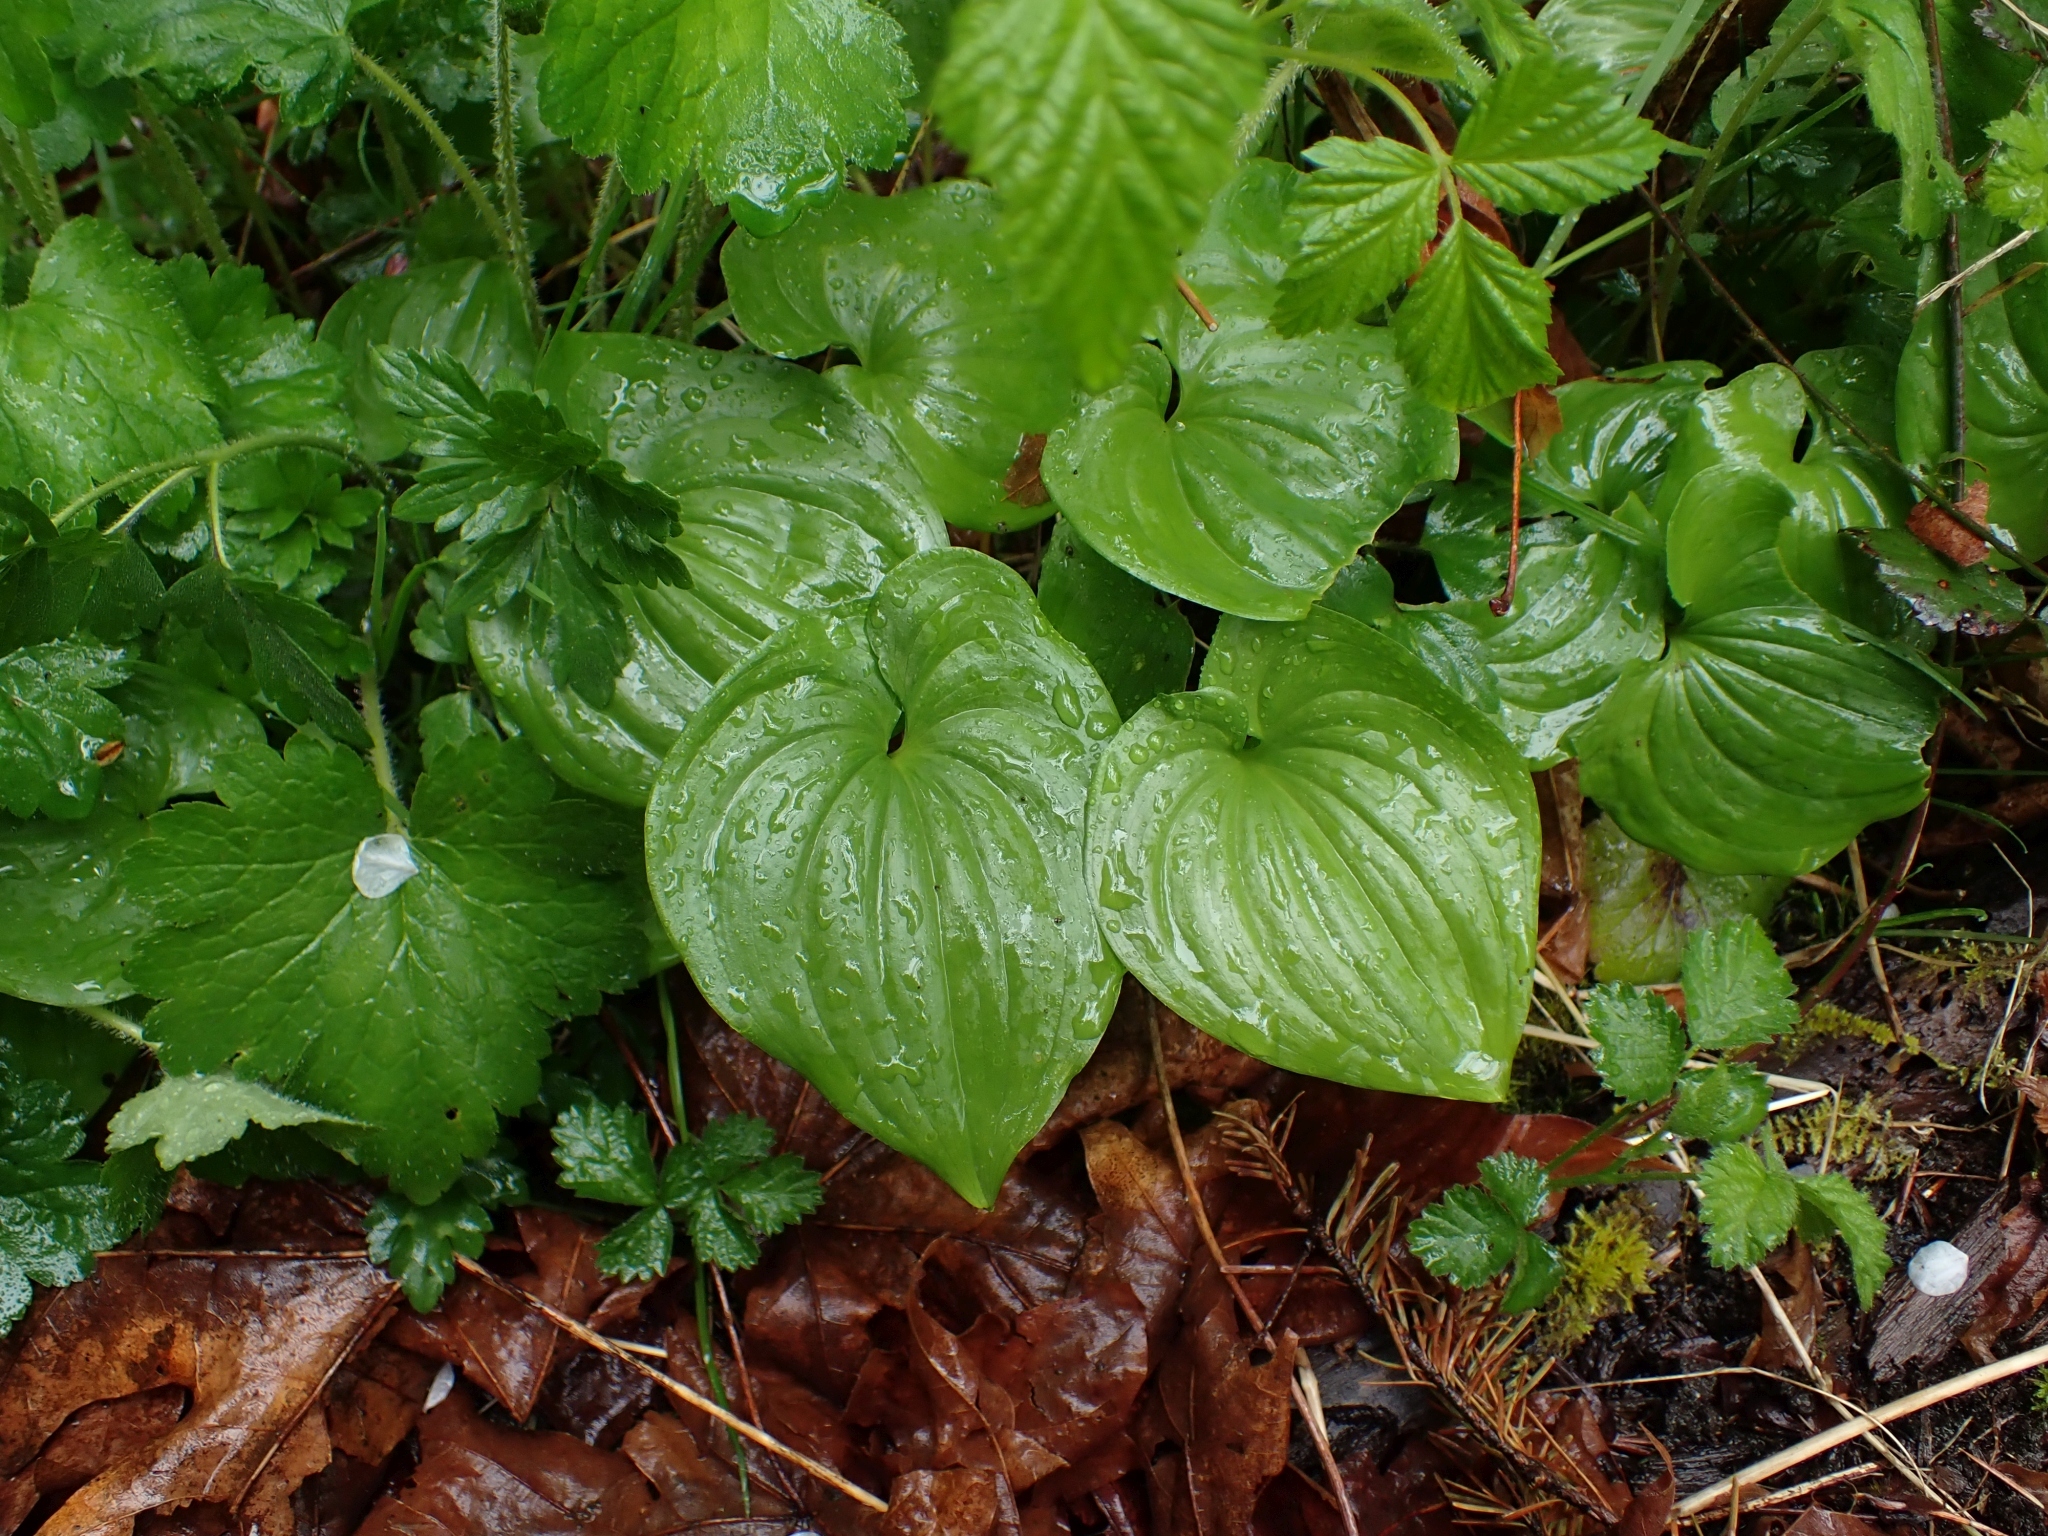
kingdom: Plantae
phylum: Tracheophyta
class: Liliopsida
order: Asparagales
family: Asparagaceae
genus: Maianthemum
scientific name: Maianthemum dilatatum
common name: False lily-of-the-valley
